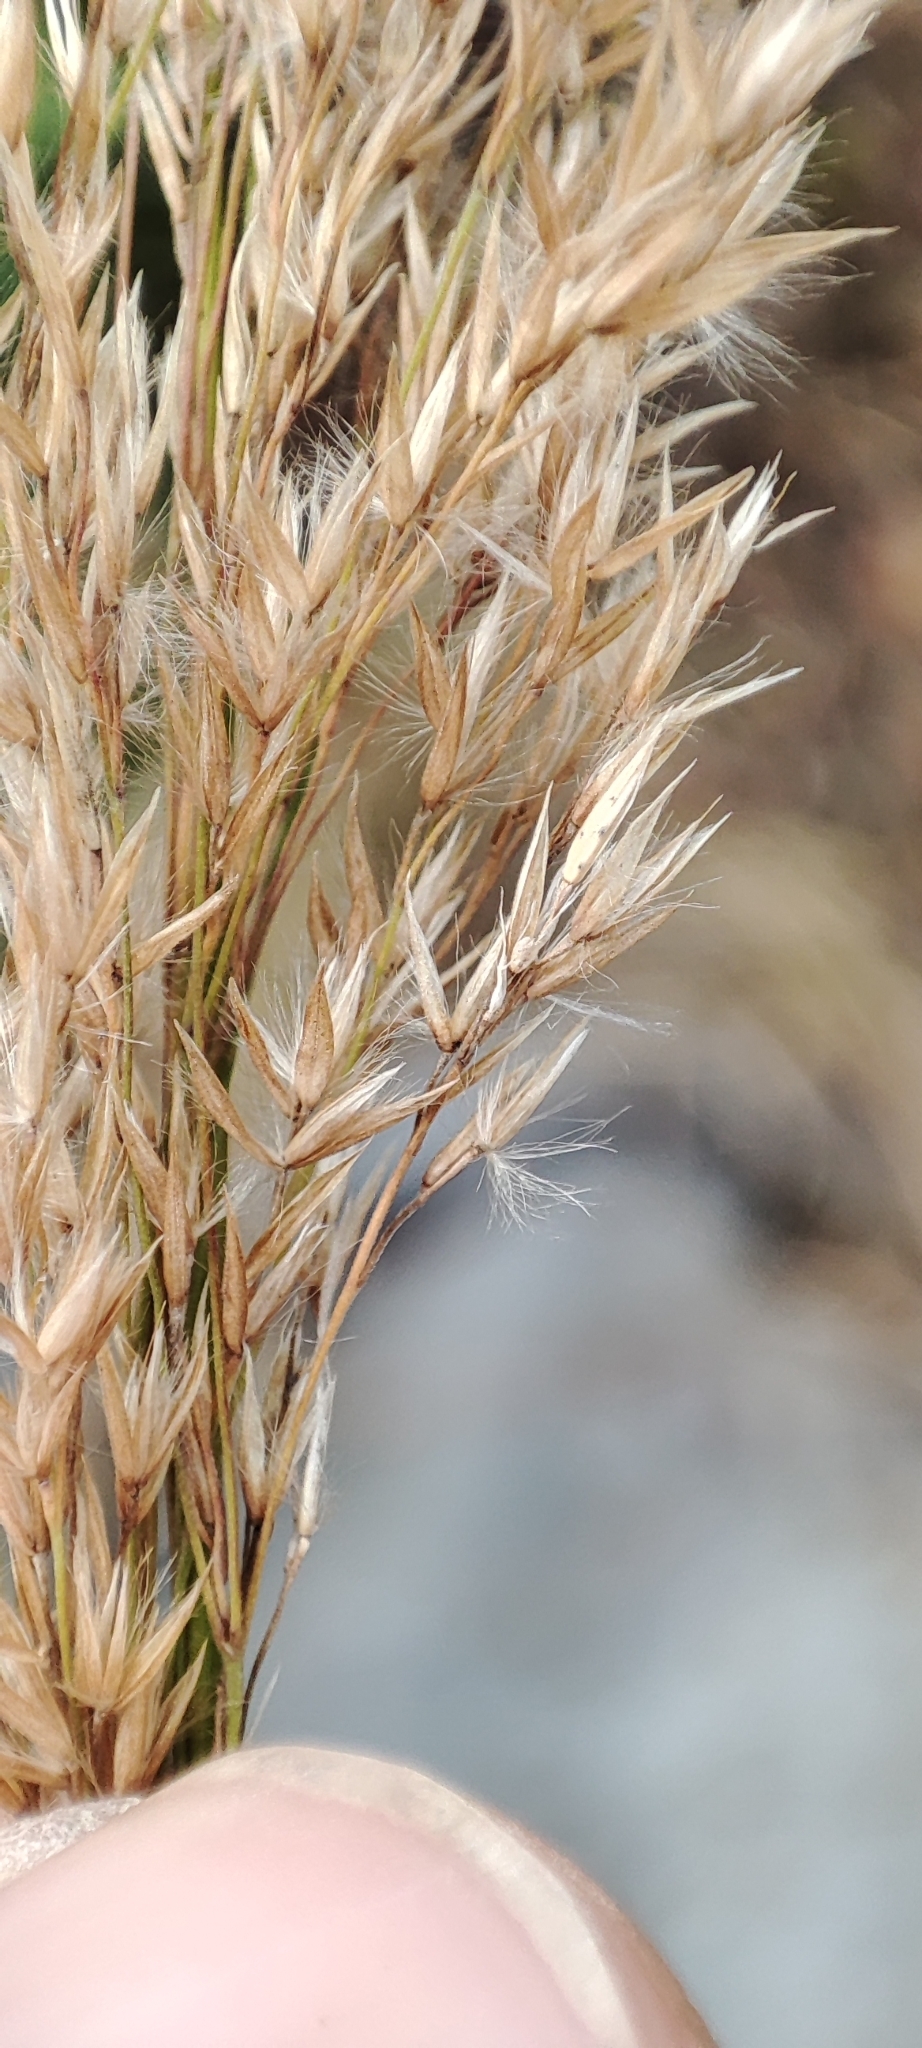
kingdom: Plantae
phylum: Tracheophyta
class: Liliopsida
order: Poales
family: Poaceae
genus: Calamagrostis
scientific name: Calamagrostis purpurea
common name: Scandinavian small-reed
